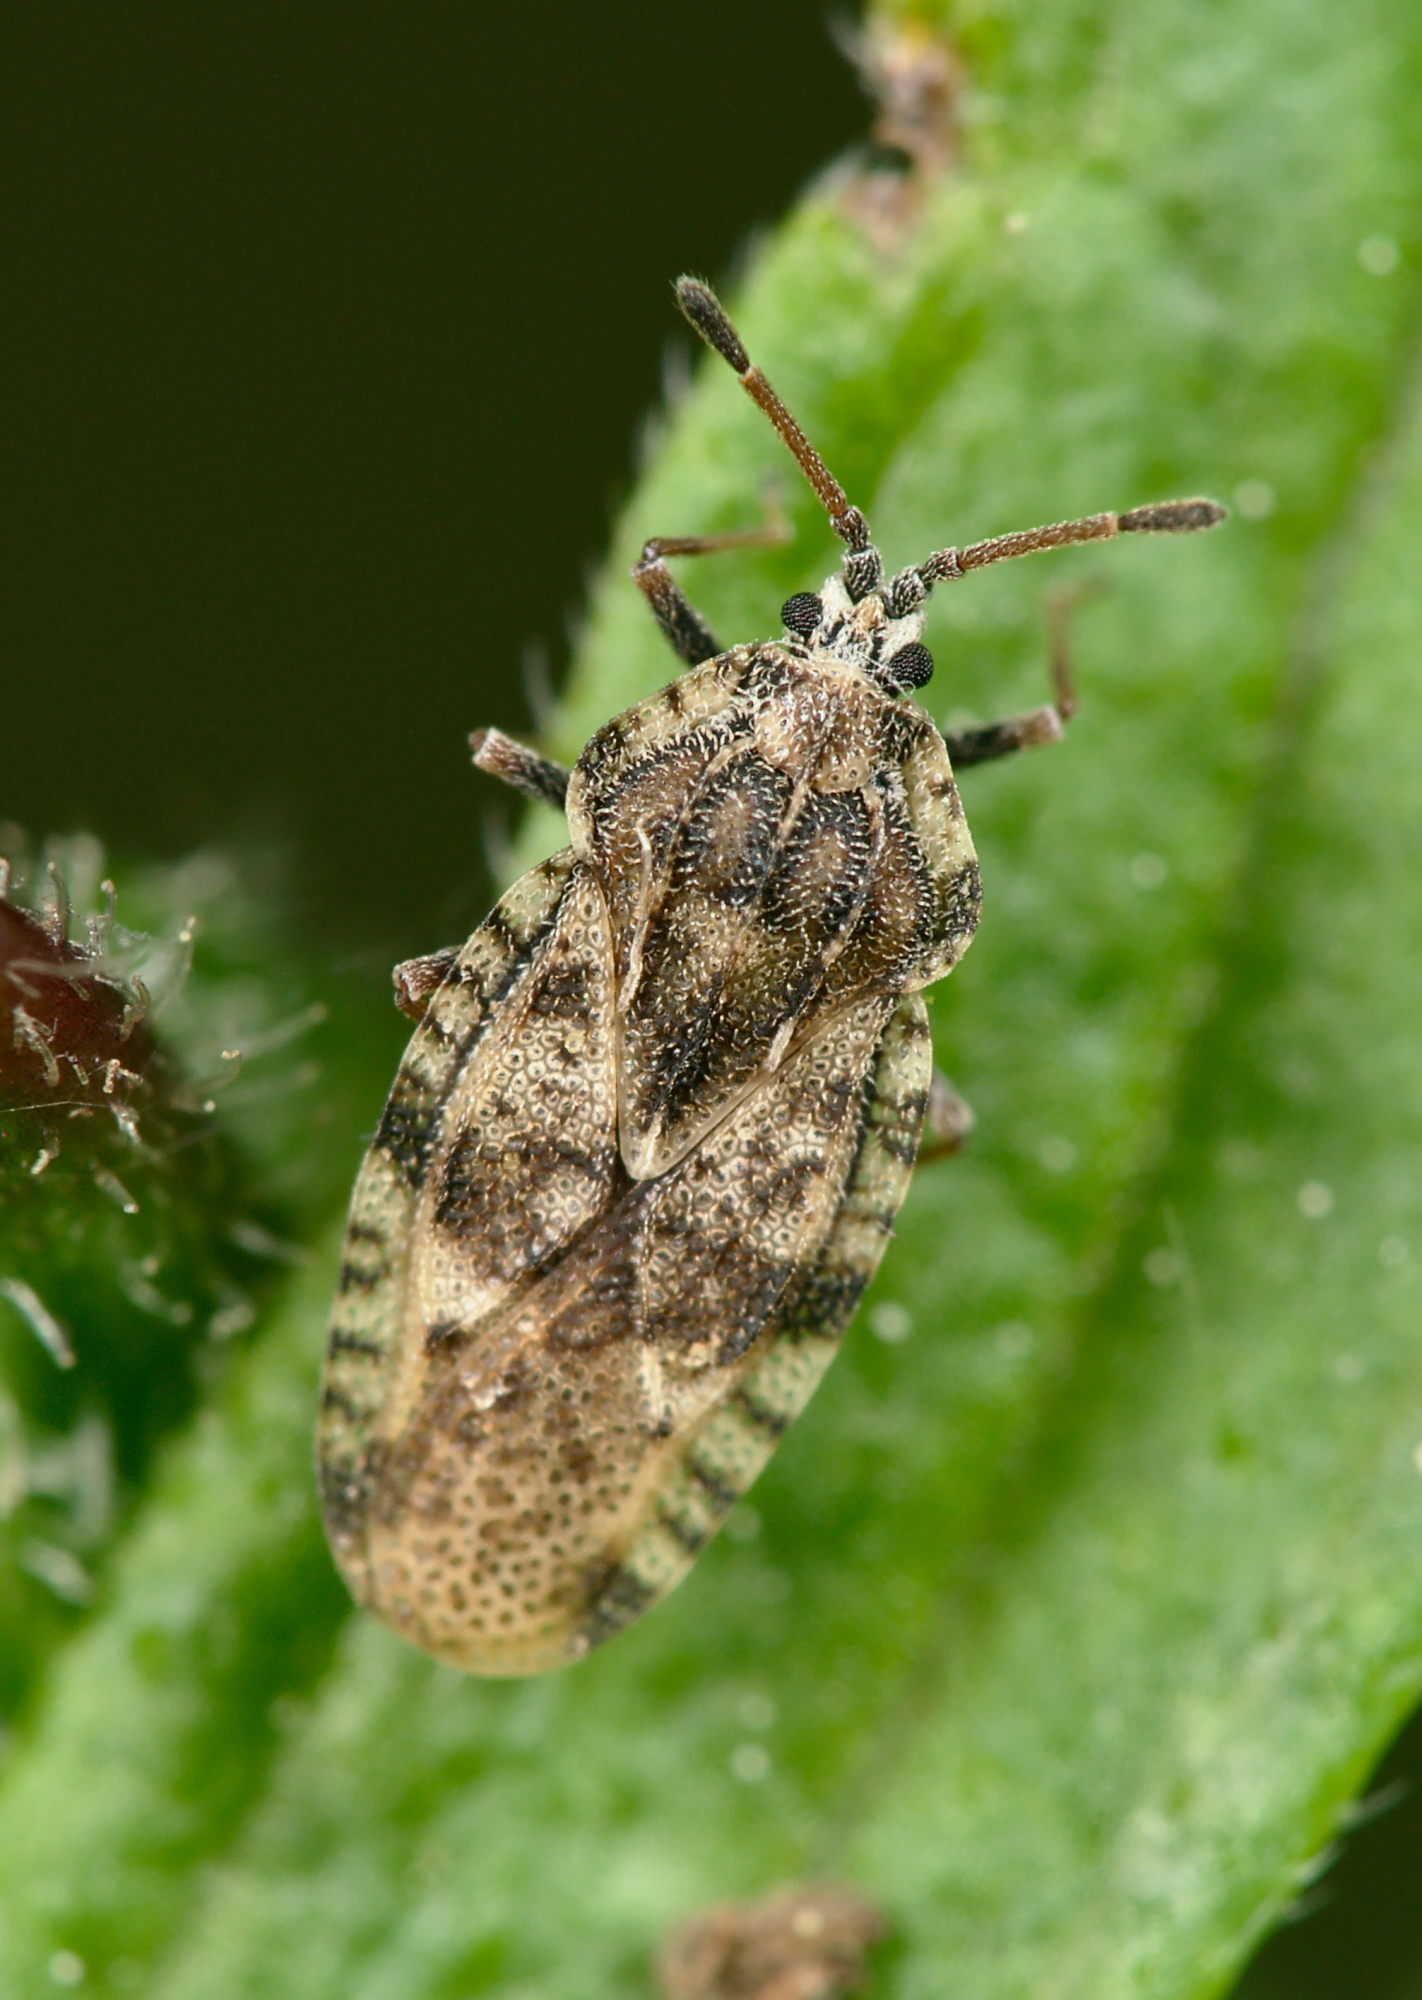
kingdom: Animalia
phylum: Arthropoda
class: Insecta
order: Hemiptera
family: Tingidae
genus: Tingis
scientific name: Tingis cardui
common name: Spear thistle lacebug
